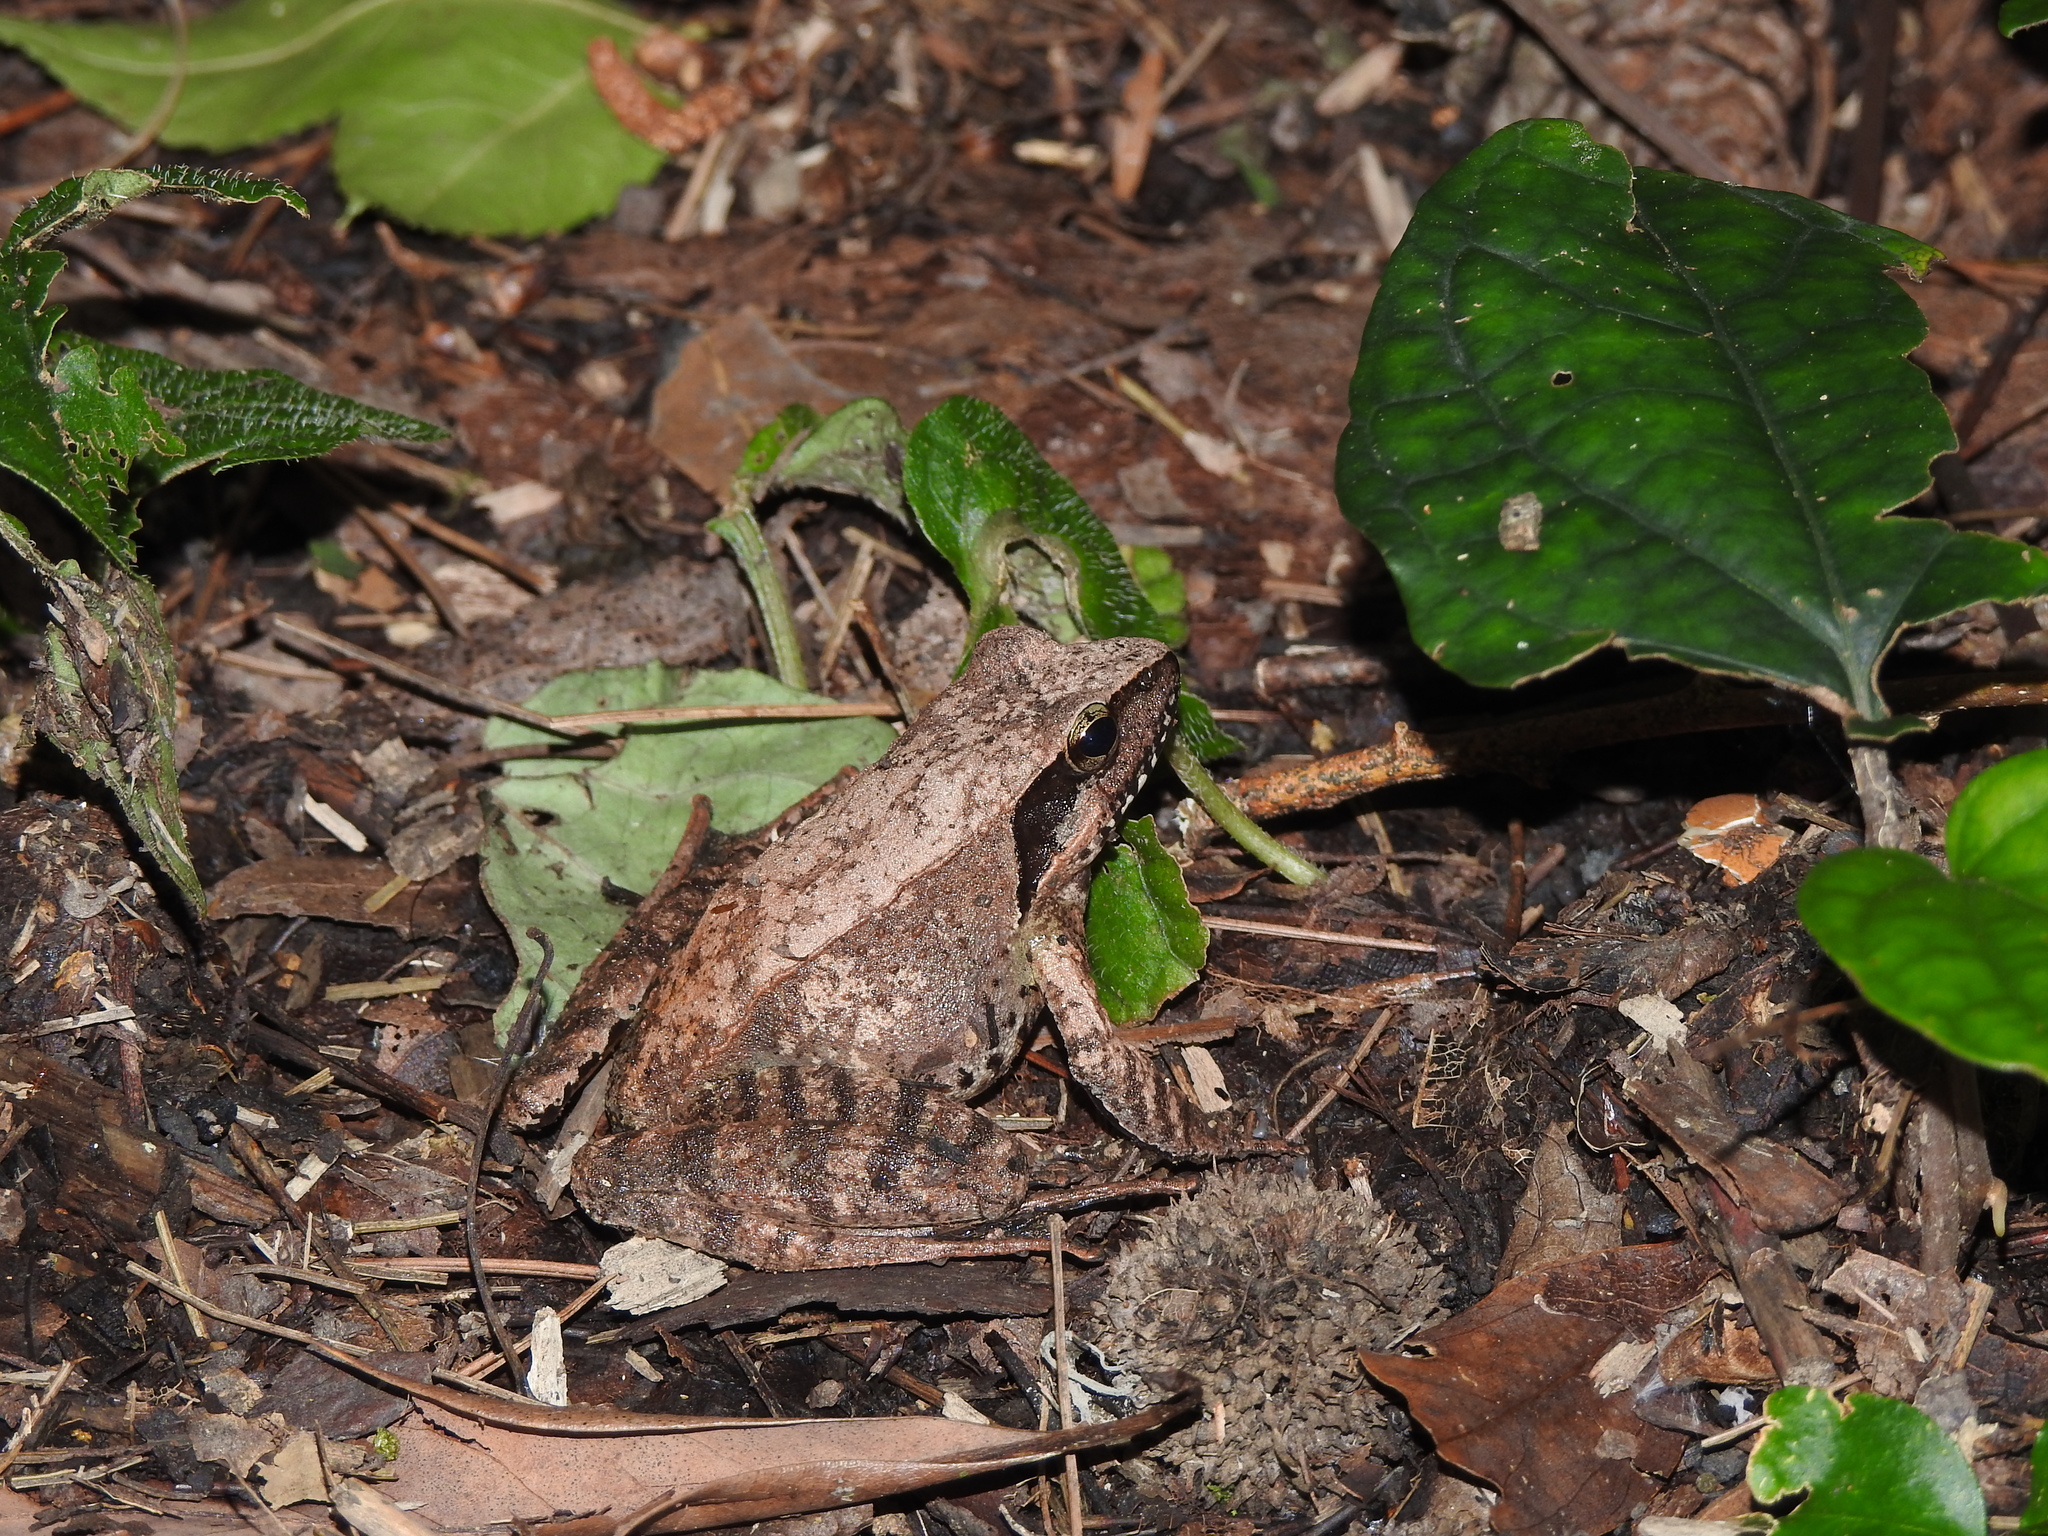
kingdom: Animalia
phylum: Chordata
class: Amphibia
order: Anura
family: Ranidae
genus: Rana
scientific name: Rana sauteri
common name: Kanshirei village frog
